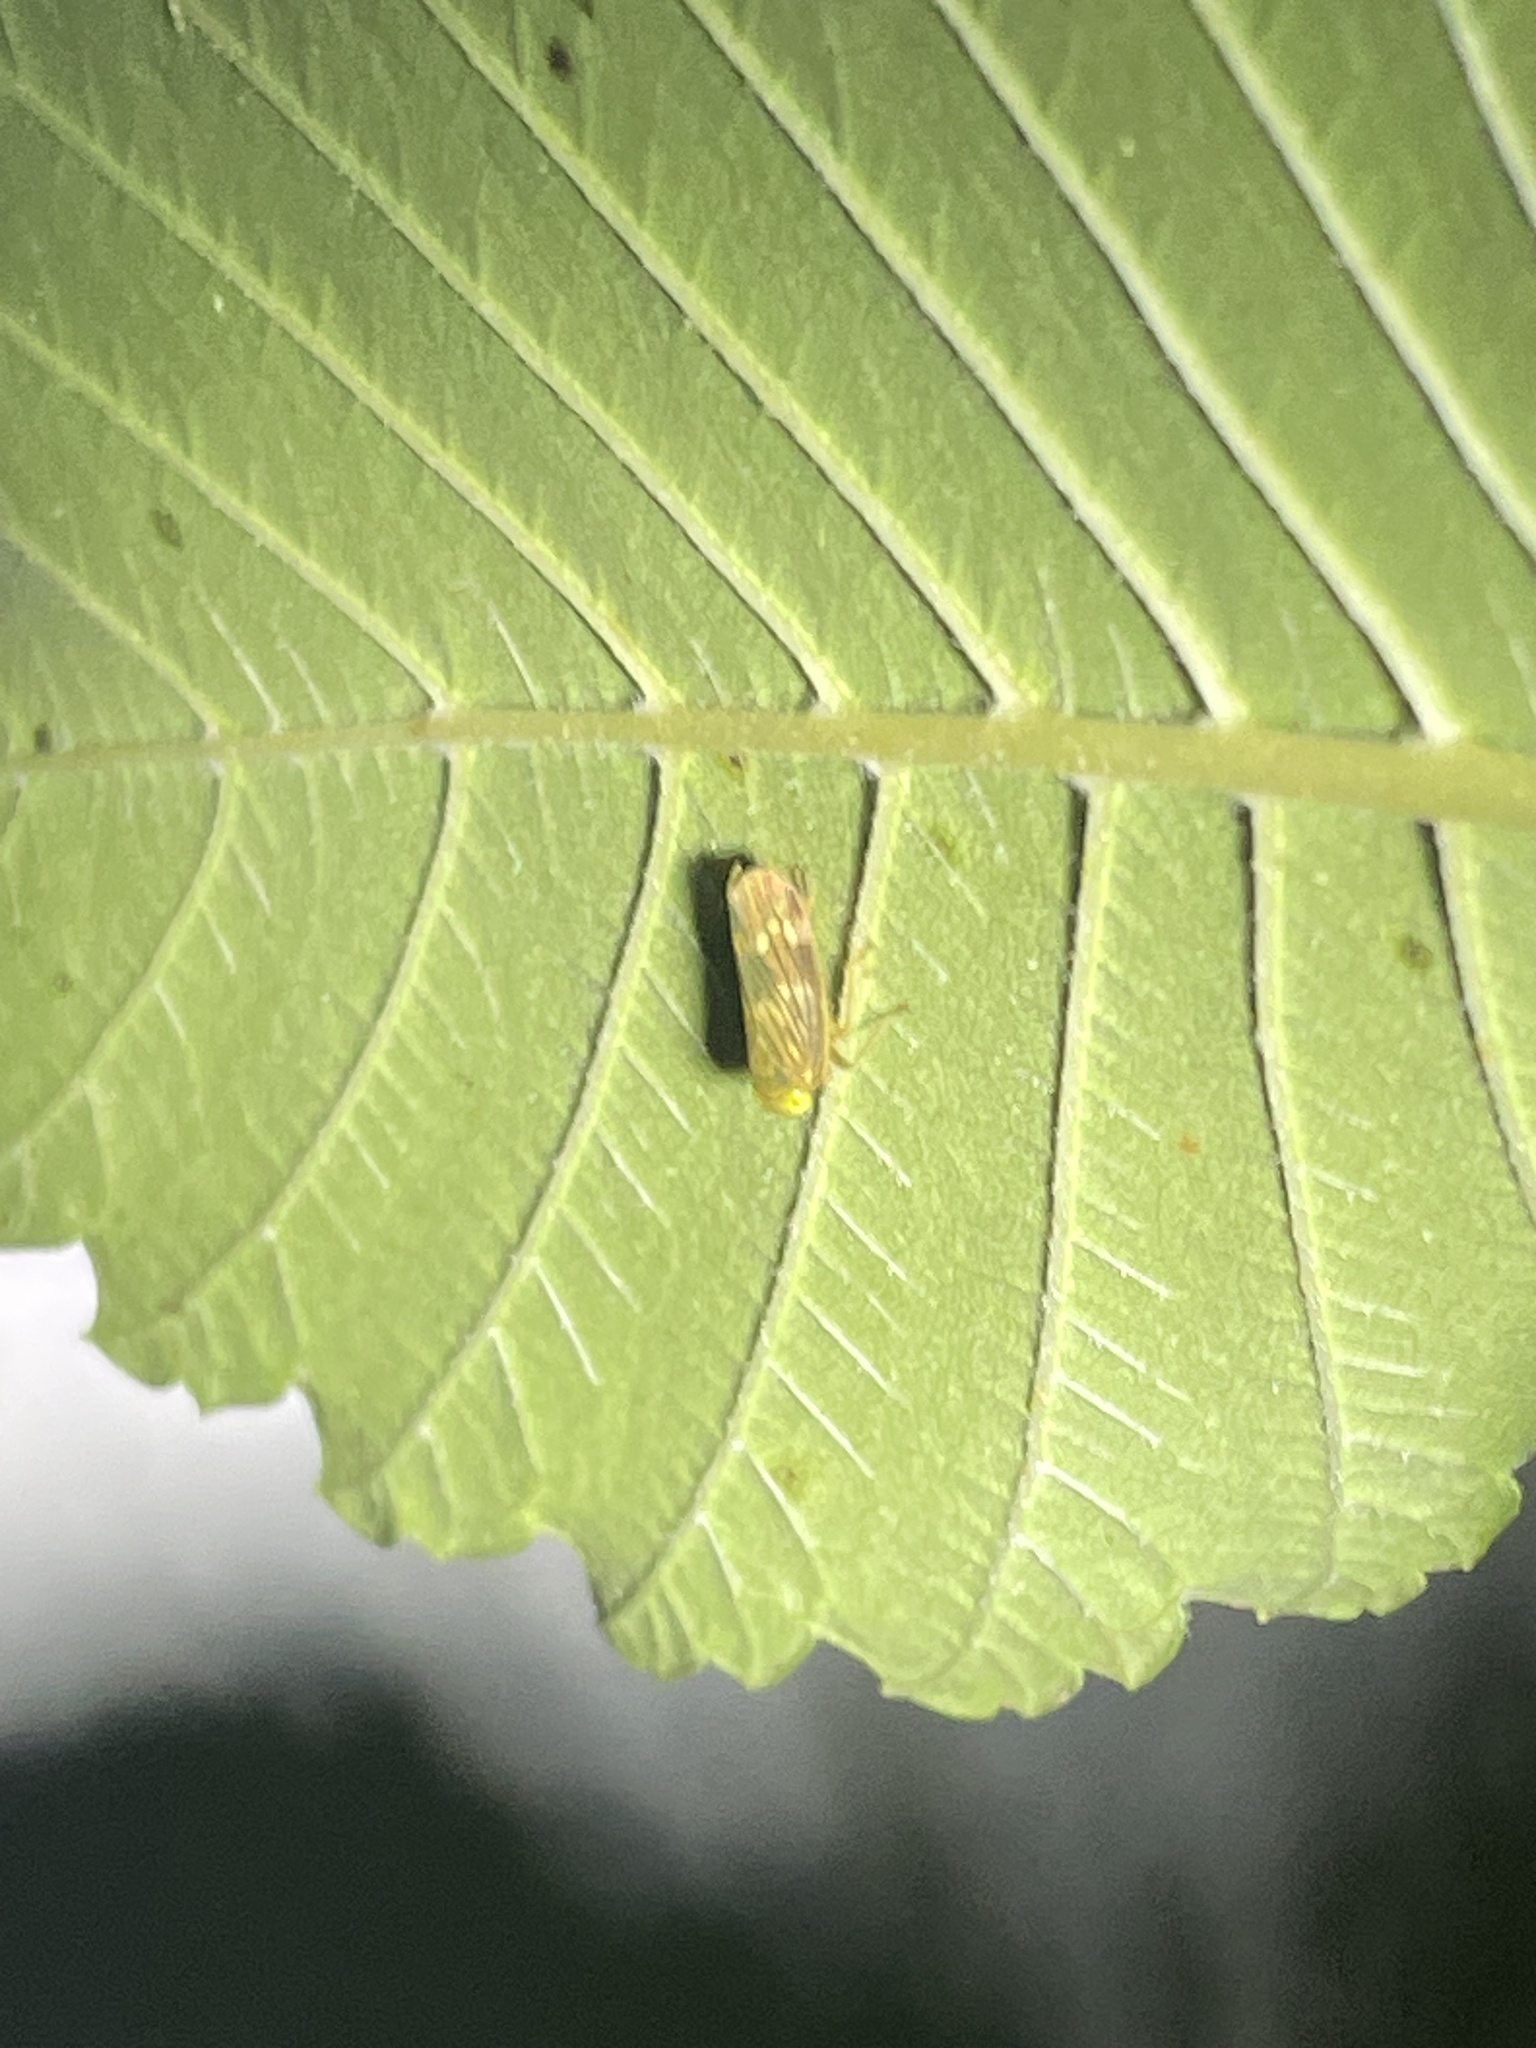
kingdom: Animalia
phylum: Arthropoda
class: Insecta
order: Hemiptera
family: Cicadellidae
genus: Jikradia
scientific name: Jikradia olitoria
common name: Coppery leafhopper
